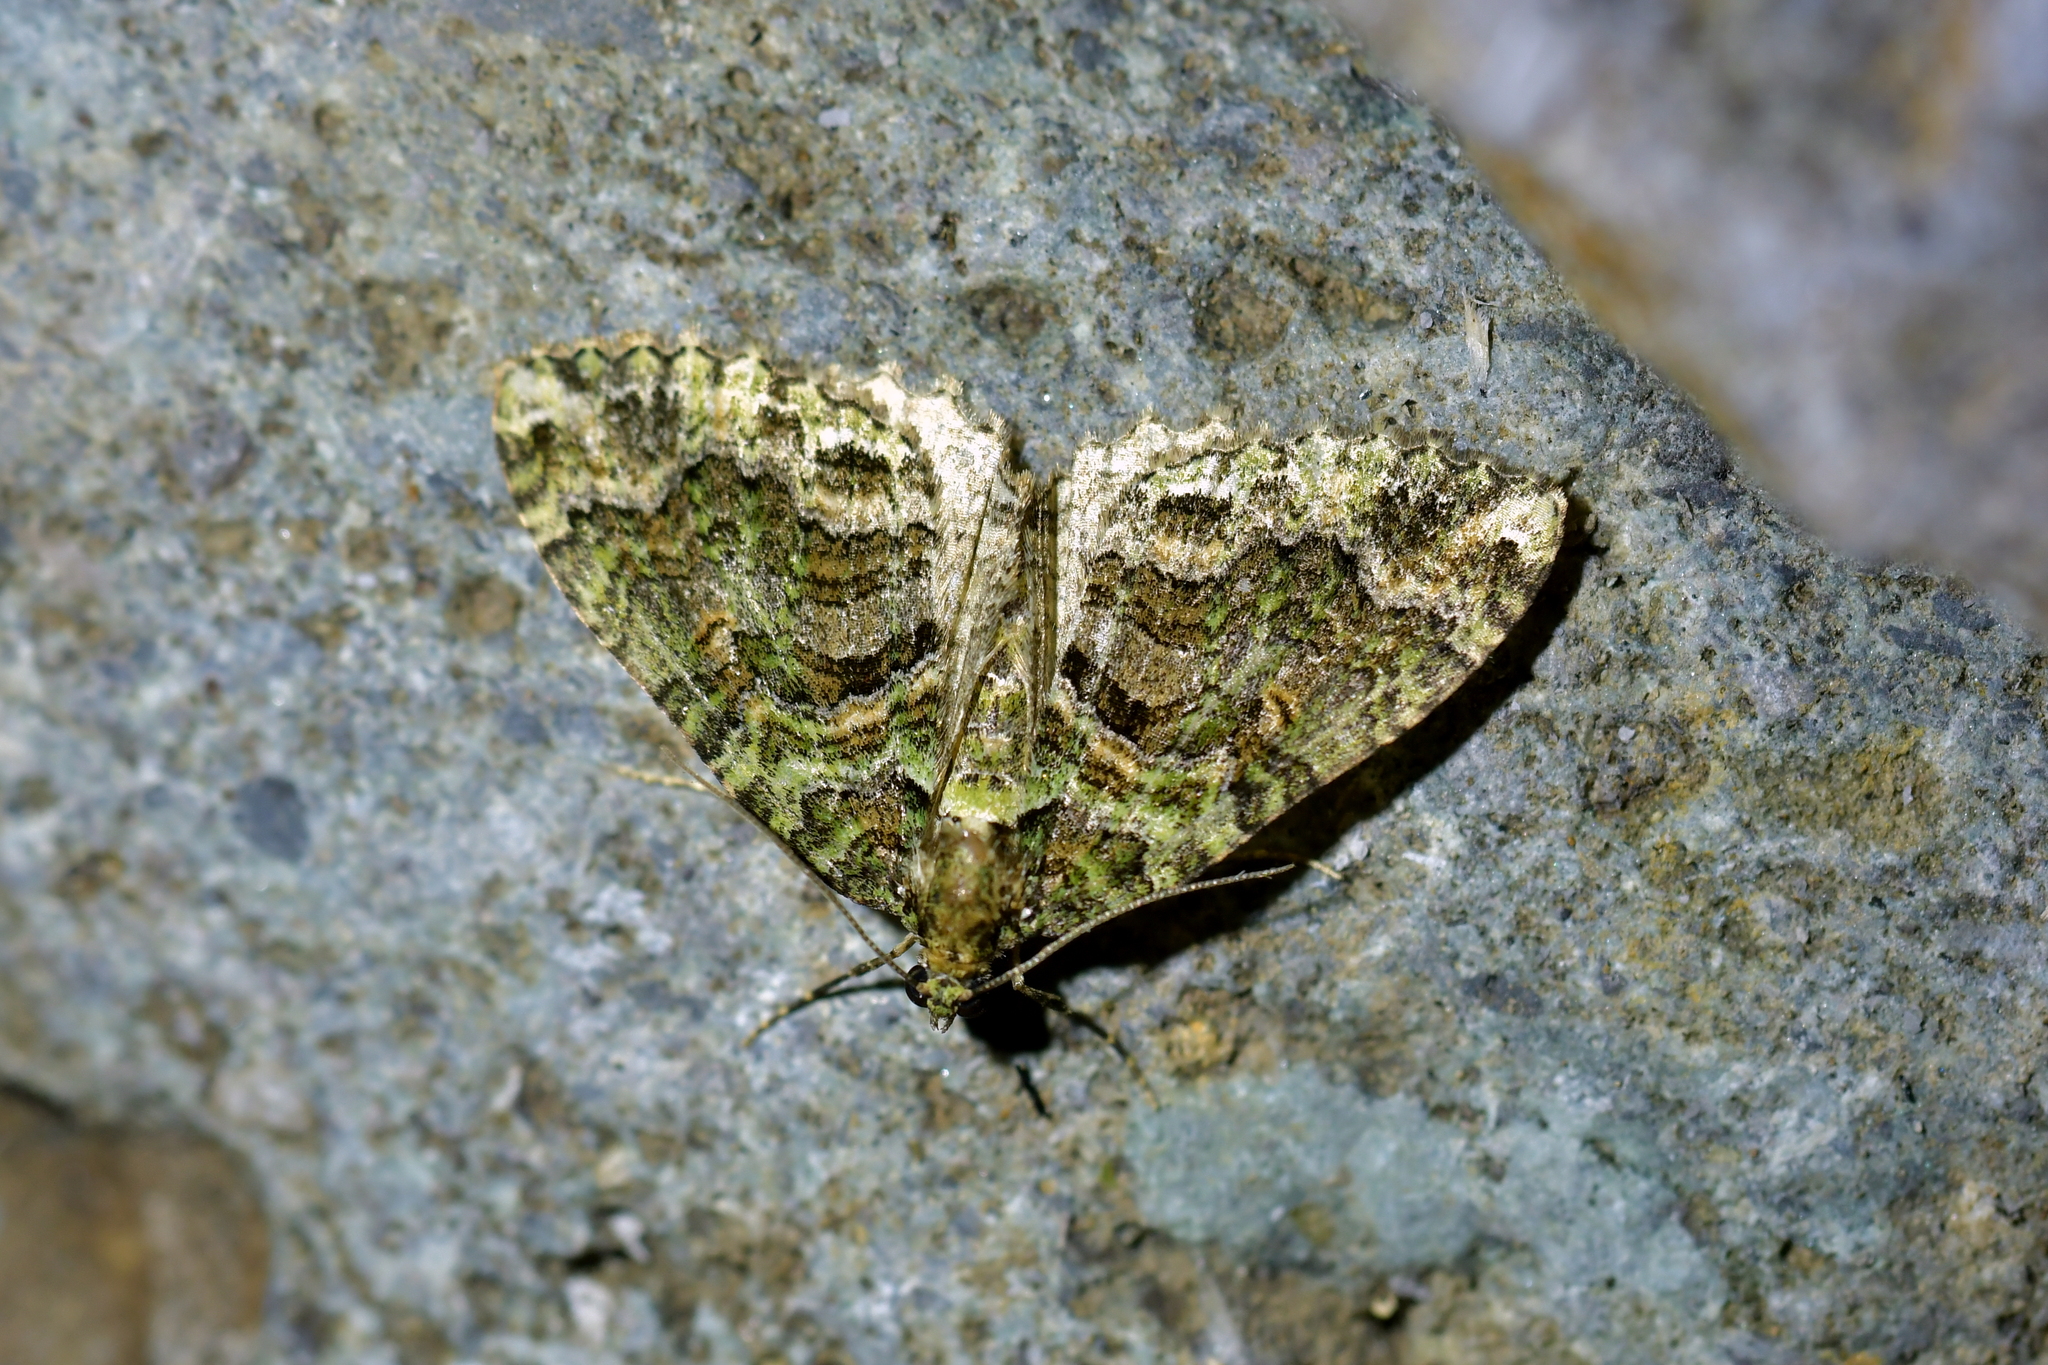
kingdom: Animalia
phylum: Arthropoda
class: Insecta
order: Lepidoptera
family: Geometridae
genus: Austrocidaria
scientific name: Austrocidaria similata
